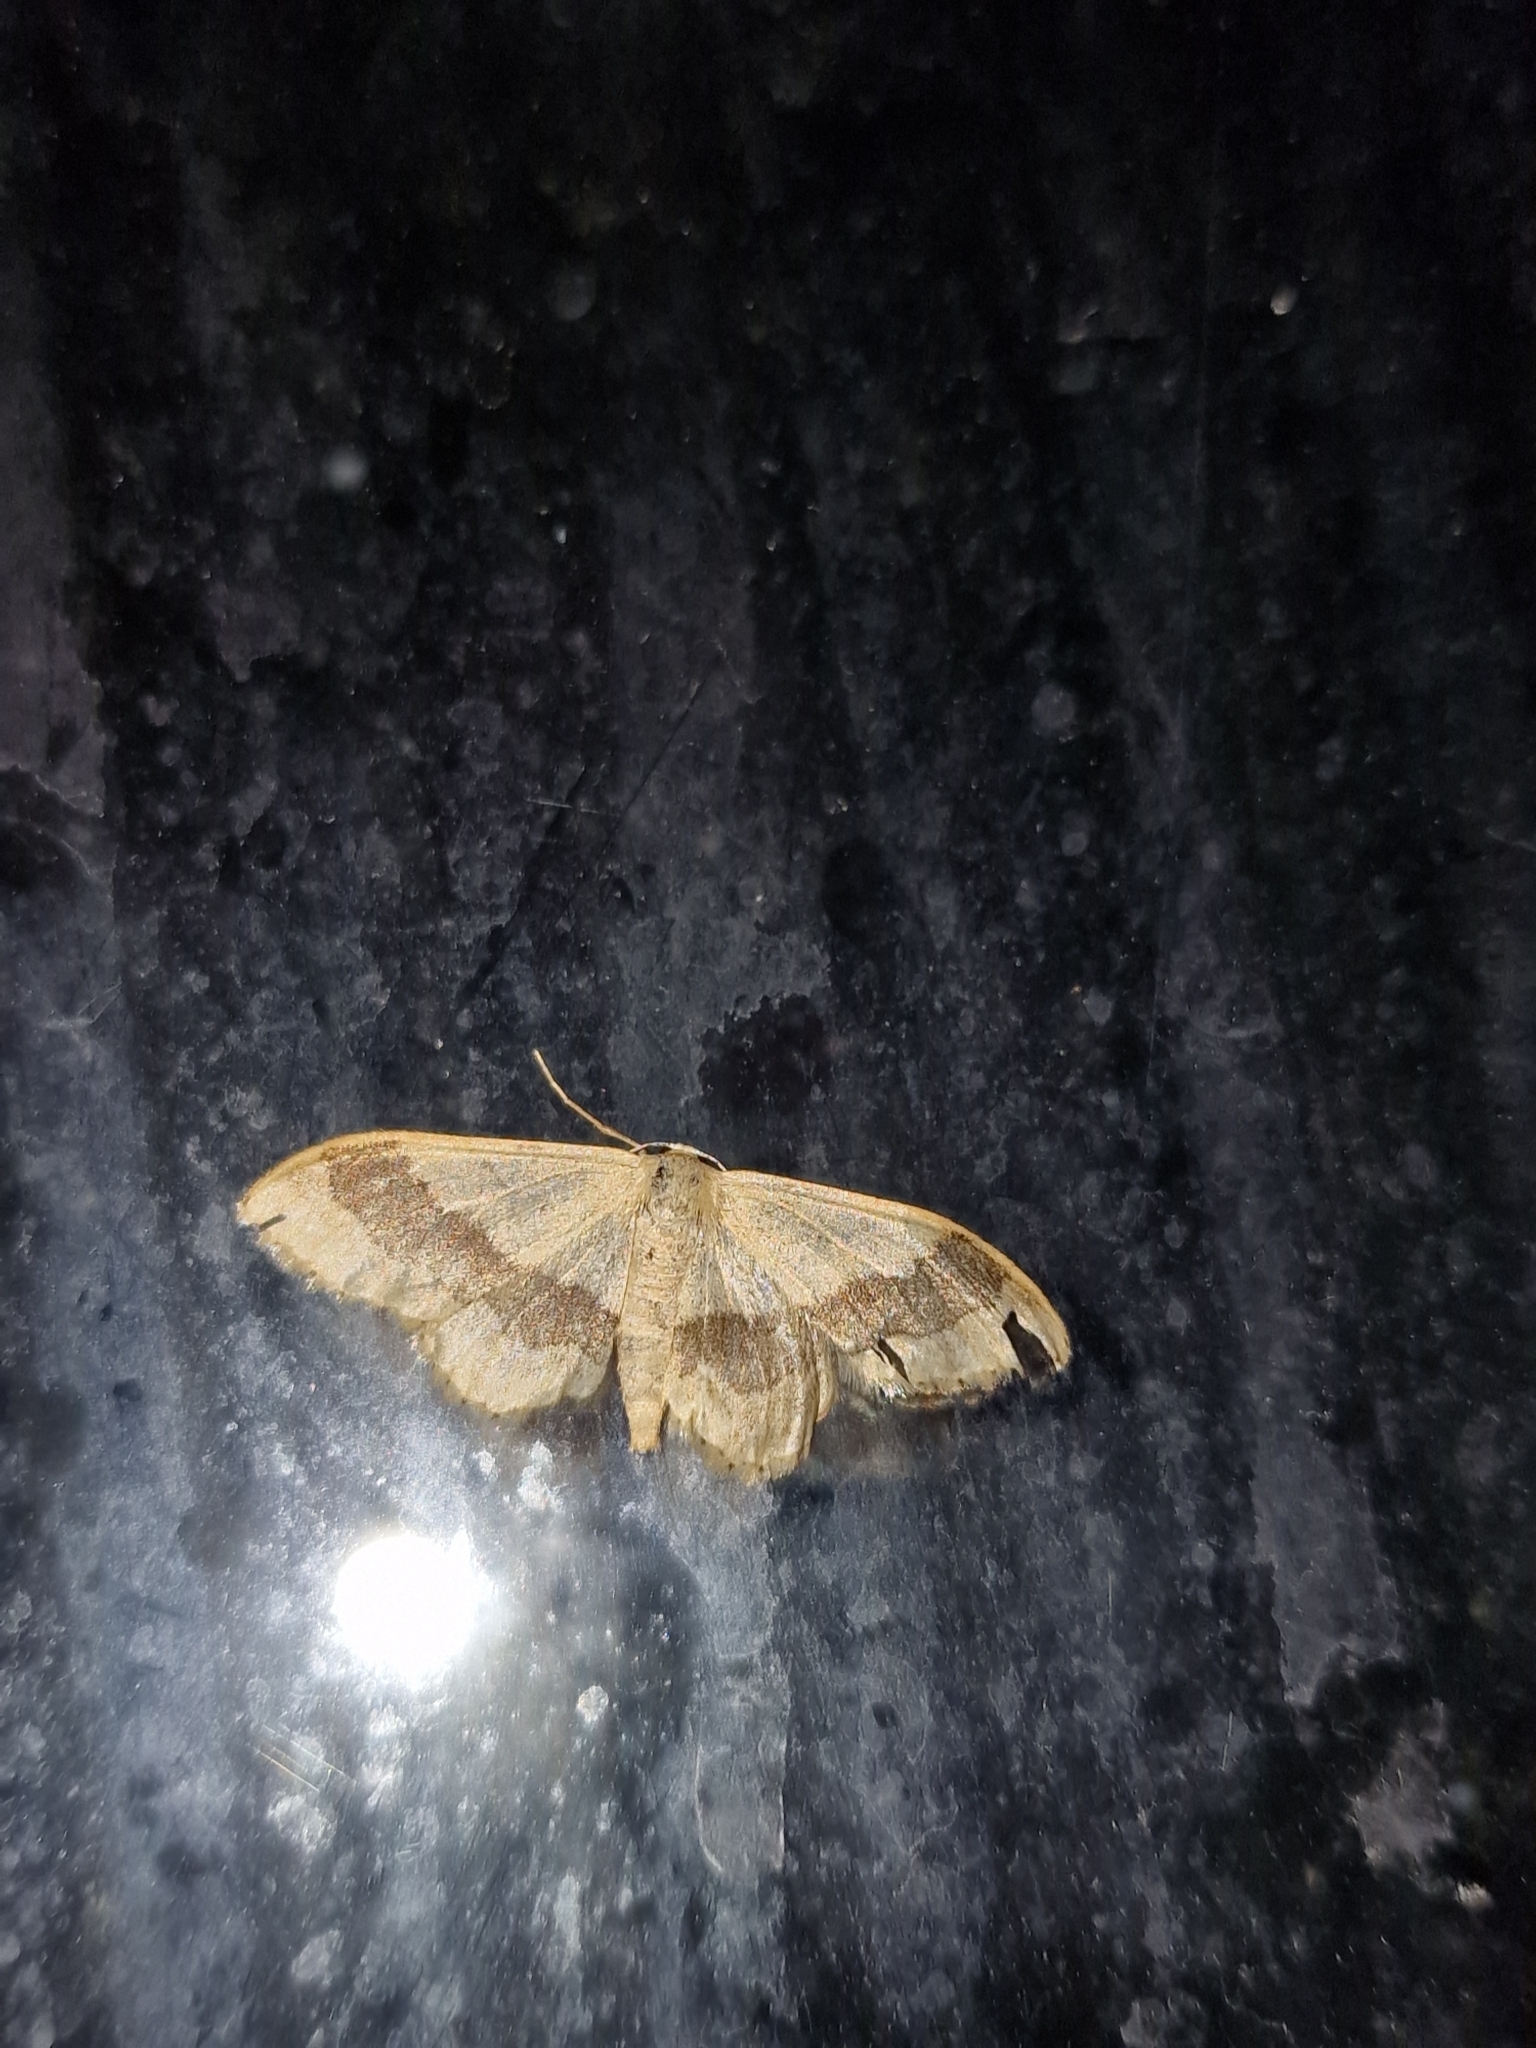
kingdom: Animalia
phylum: Arthropoda
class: Insecta
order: Lepidoptera
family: Geometridae
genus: Idaea
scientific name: Idaea aversata
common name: Riband wave
